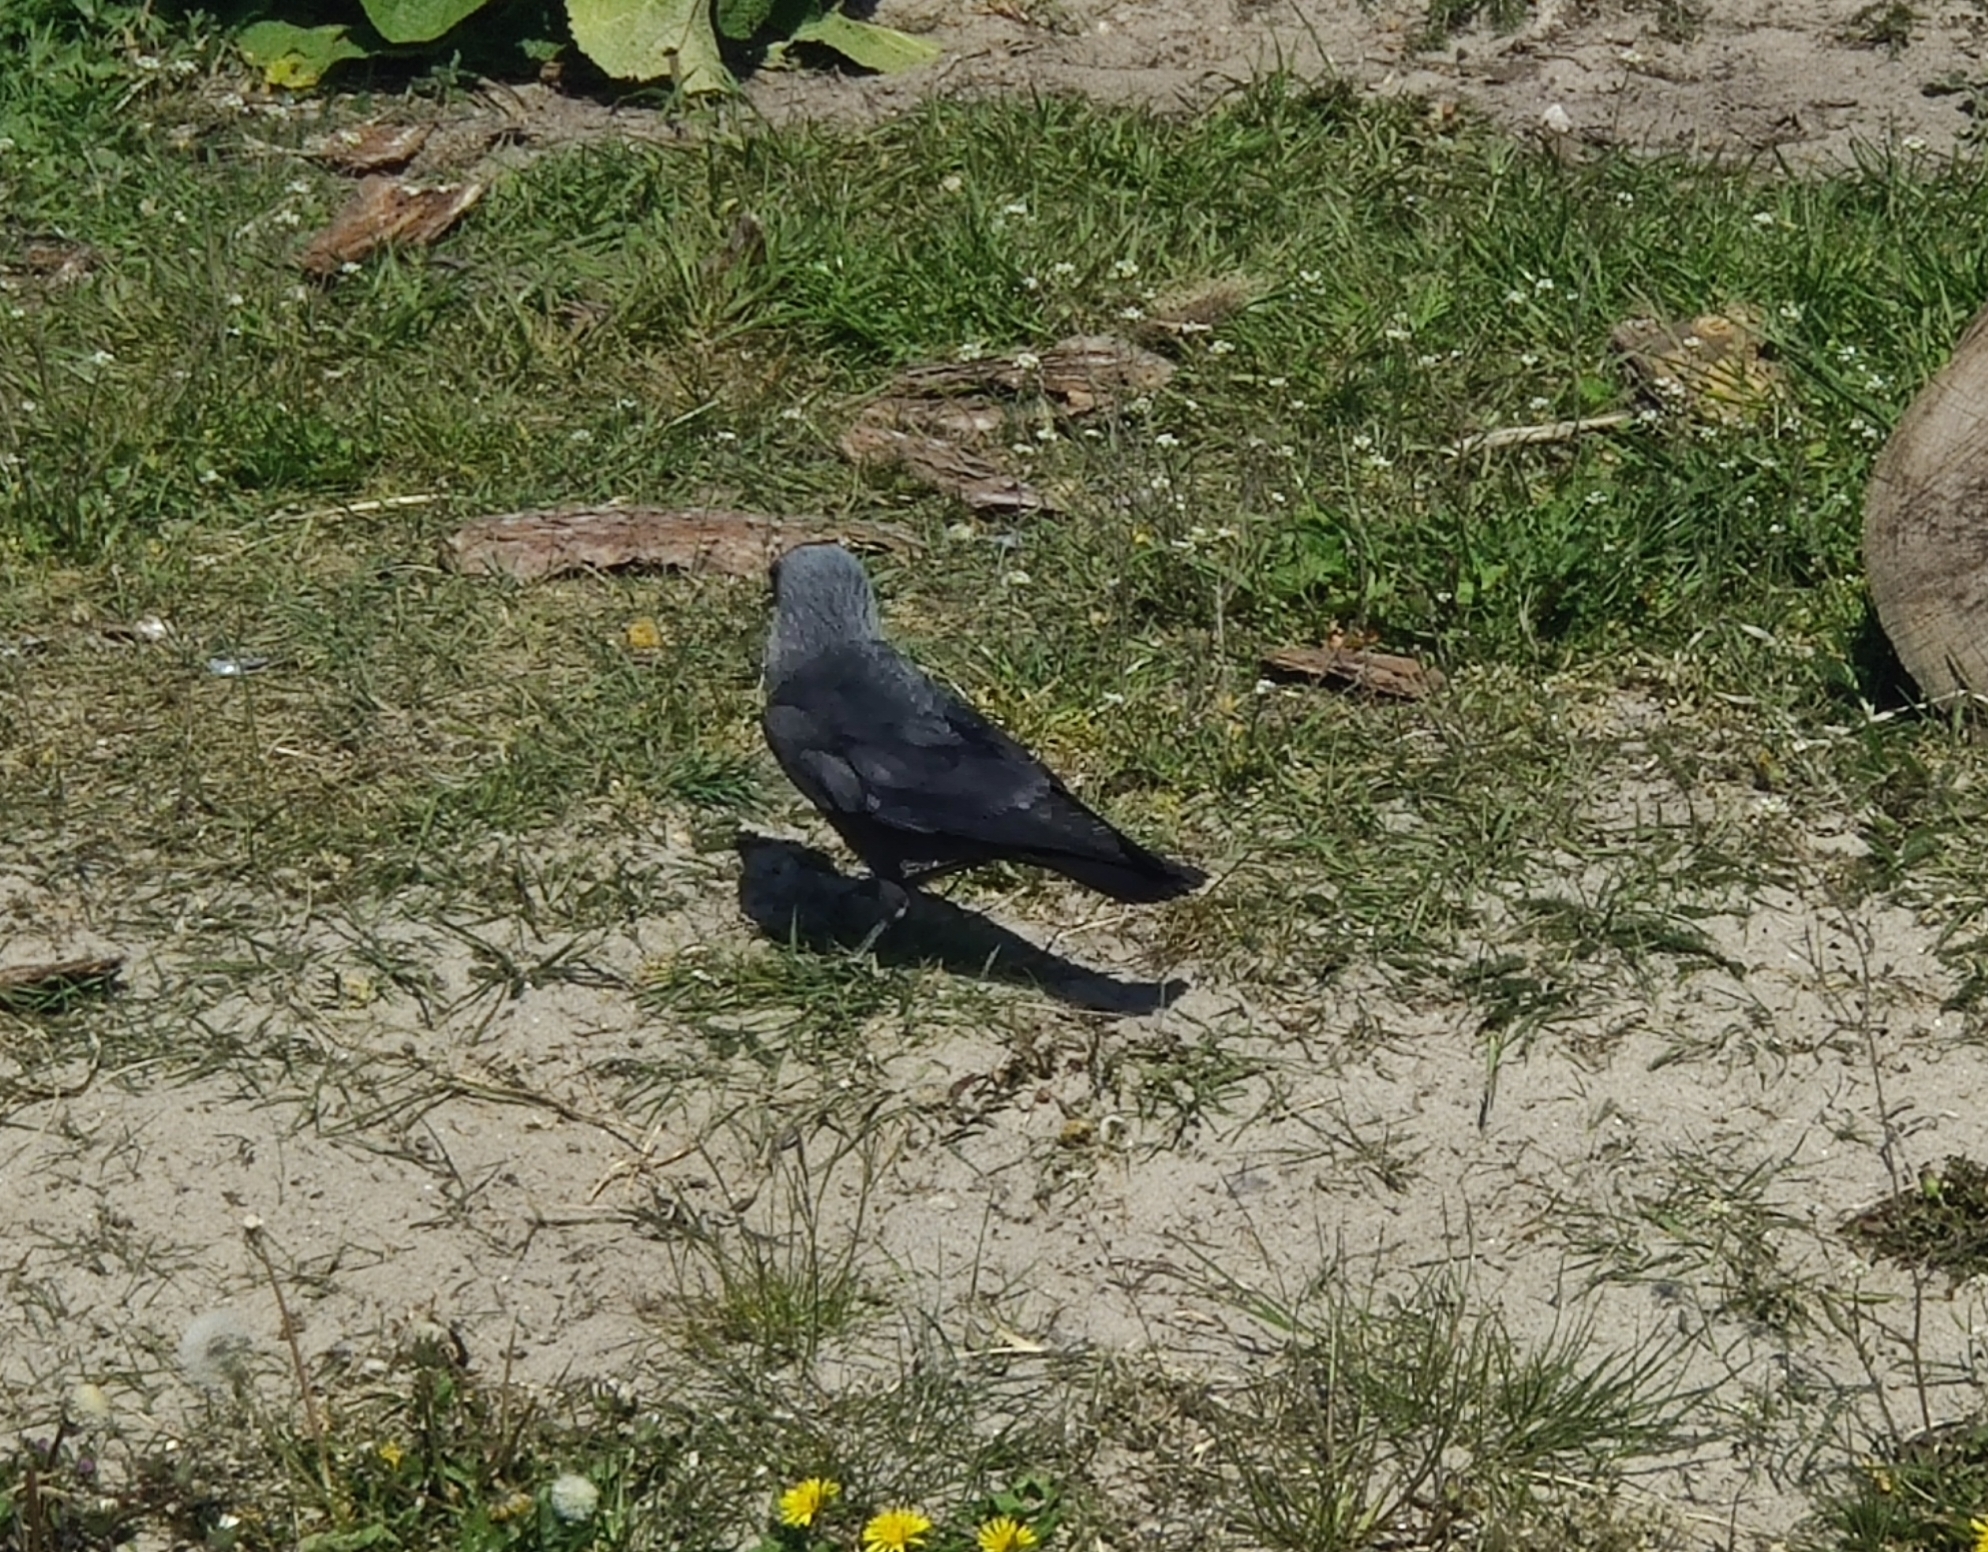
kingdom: Animalia
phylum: Chordata
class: Aves
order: Passeriformes
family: Corvidae
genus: Coloeus
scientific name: Coloeus monedula
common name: Western jackdaw
